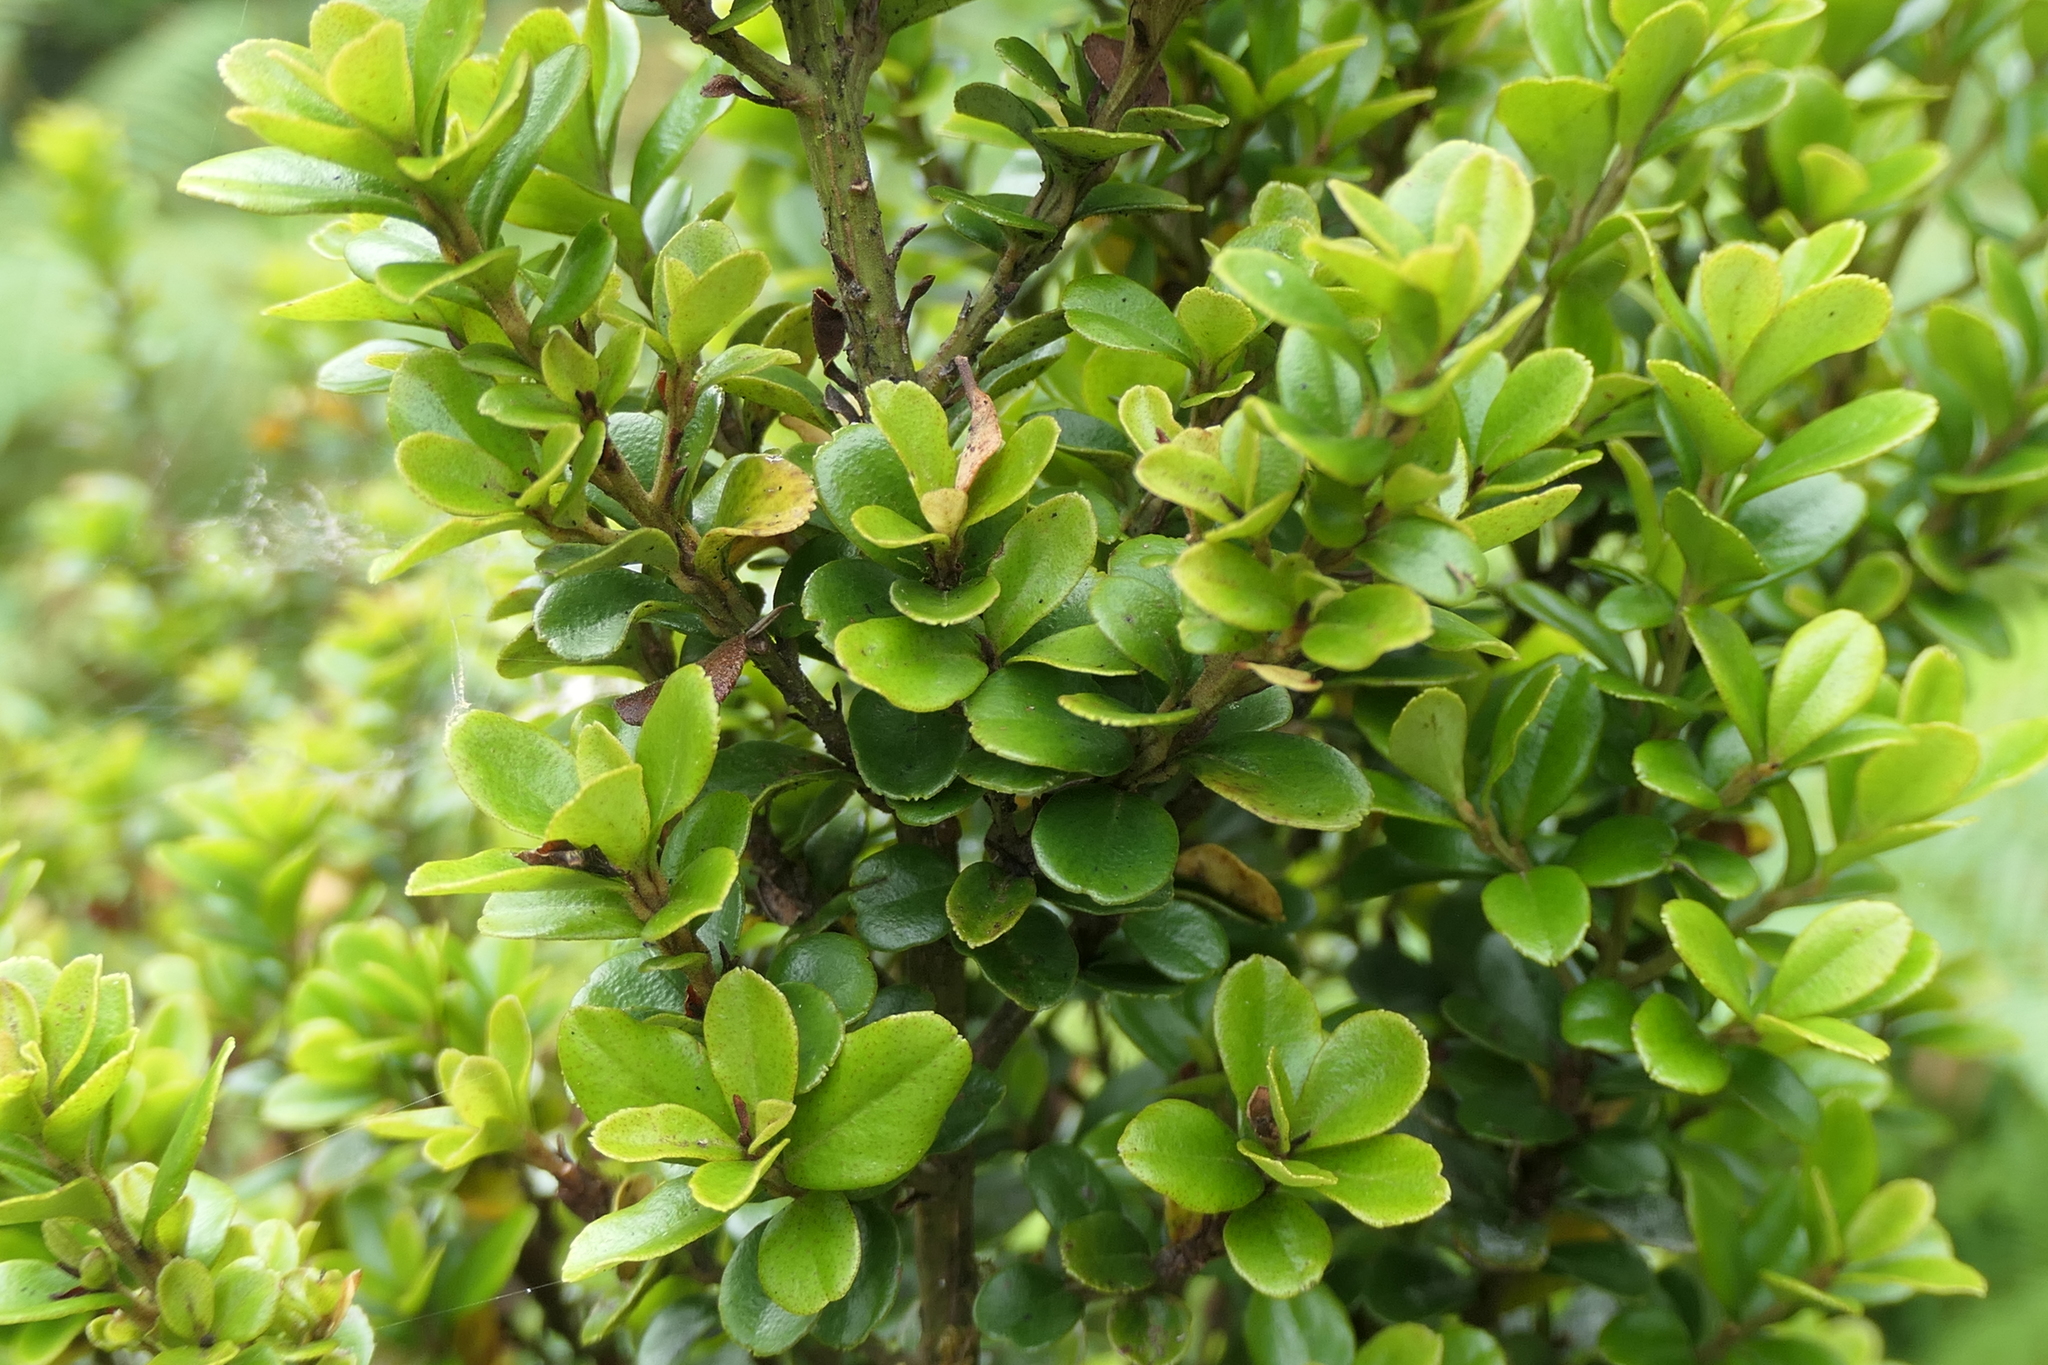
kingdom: Plantae
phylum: Tracheophyta
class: Magnoliopsida
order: Ericales
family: Primulaceae
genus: Myrsine
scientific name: Myrsine africana
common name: African-boxwood
